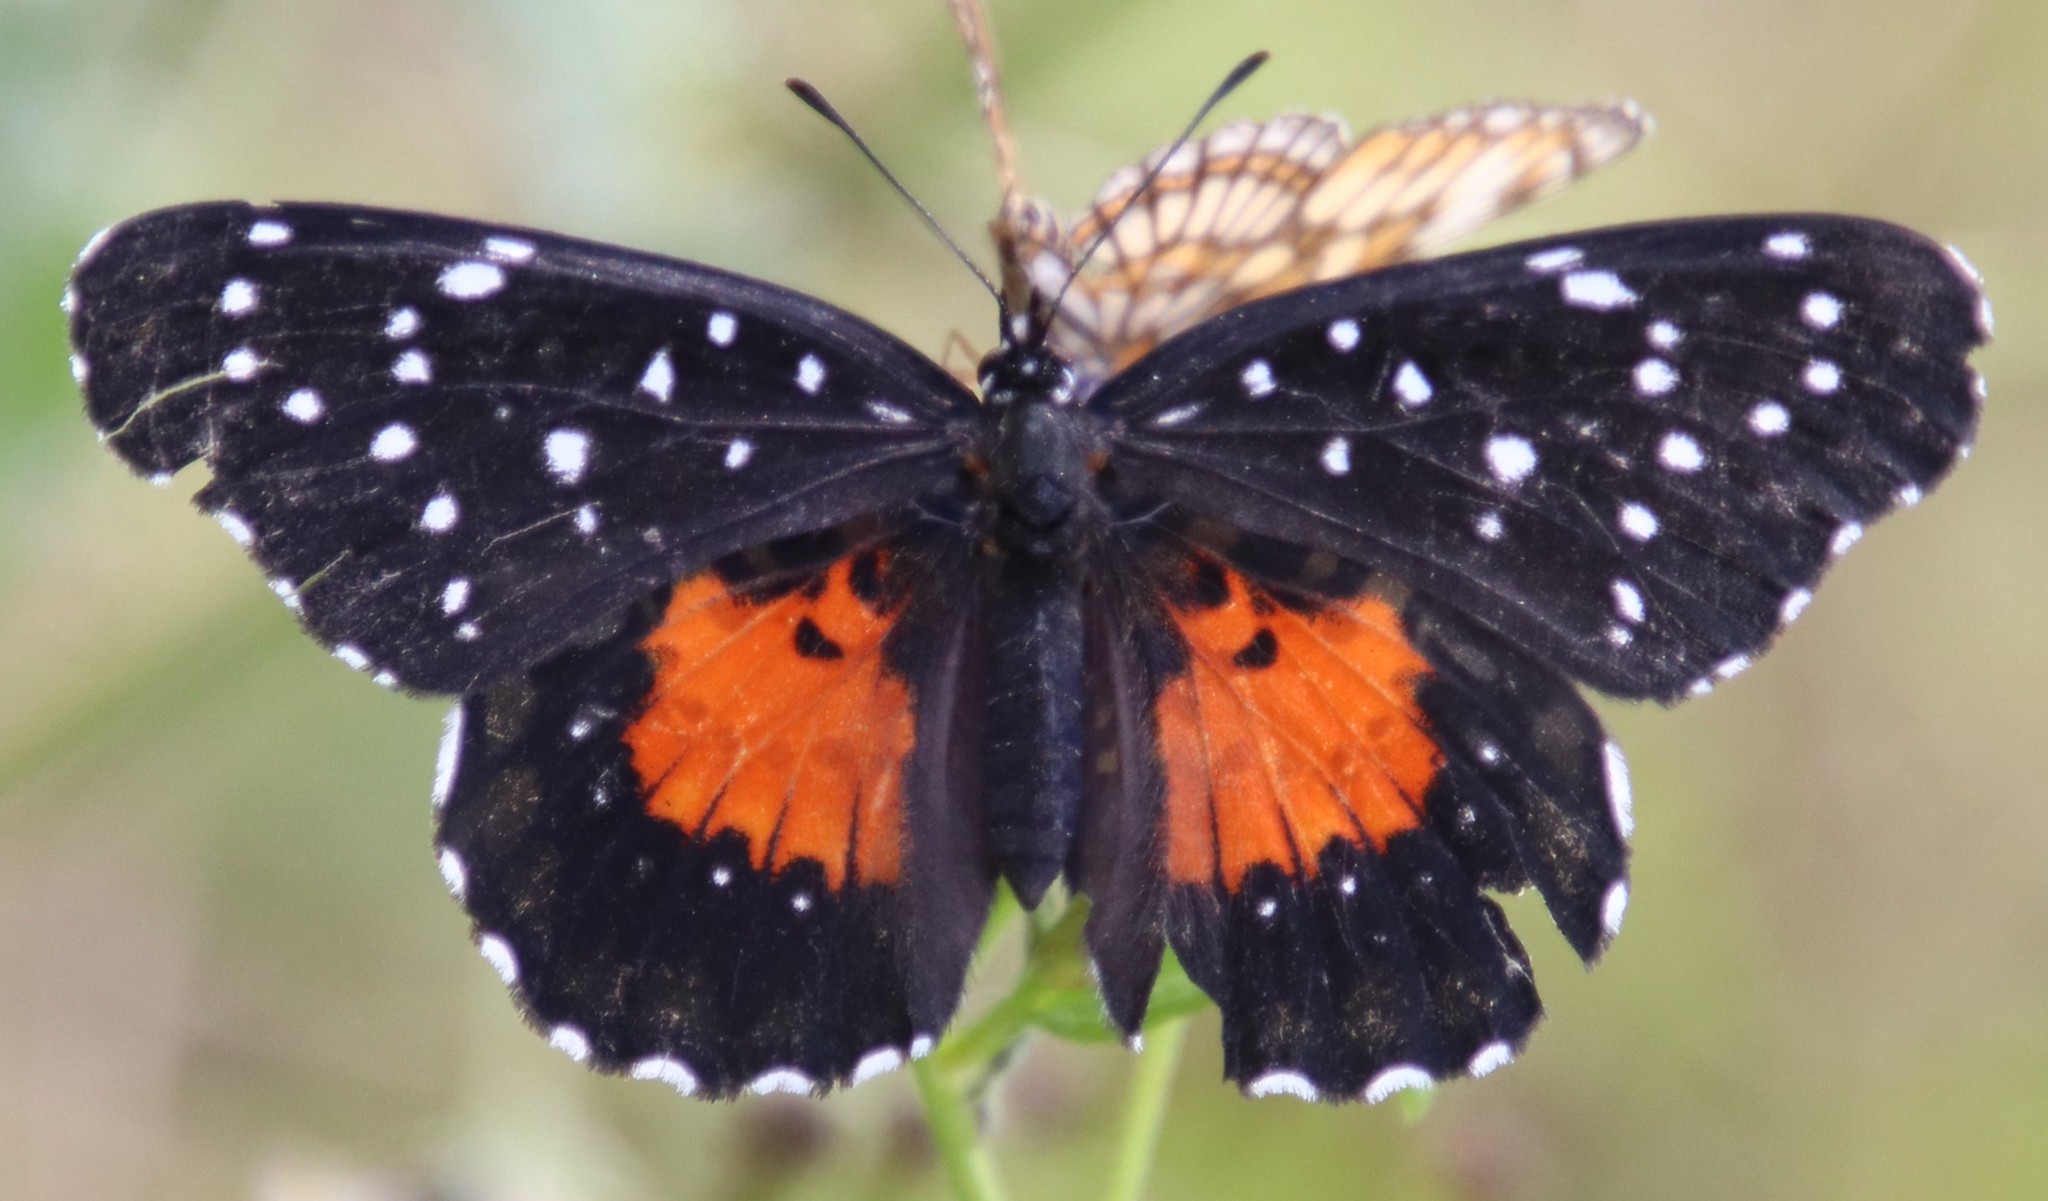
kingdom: Animalia
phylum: Arthropoda
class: Insecta
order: Lepidoptera
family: Nymphalidae
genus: Chlosyne
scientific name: Chlosyne janais
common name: Crimson patch
